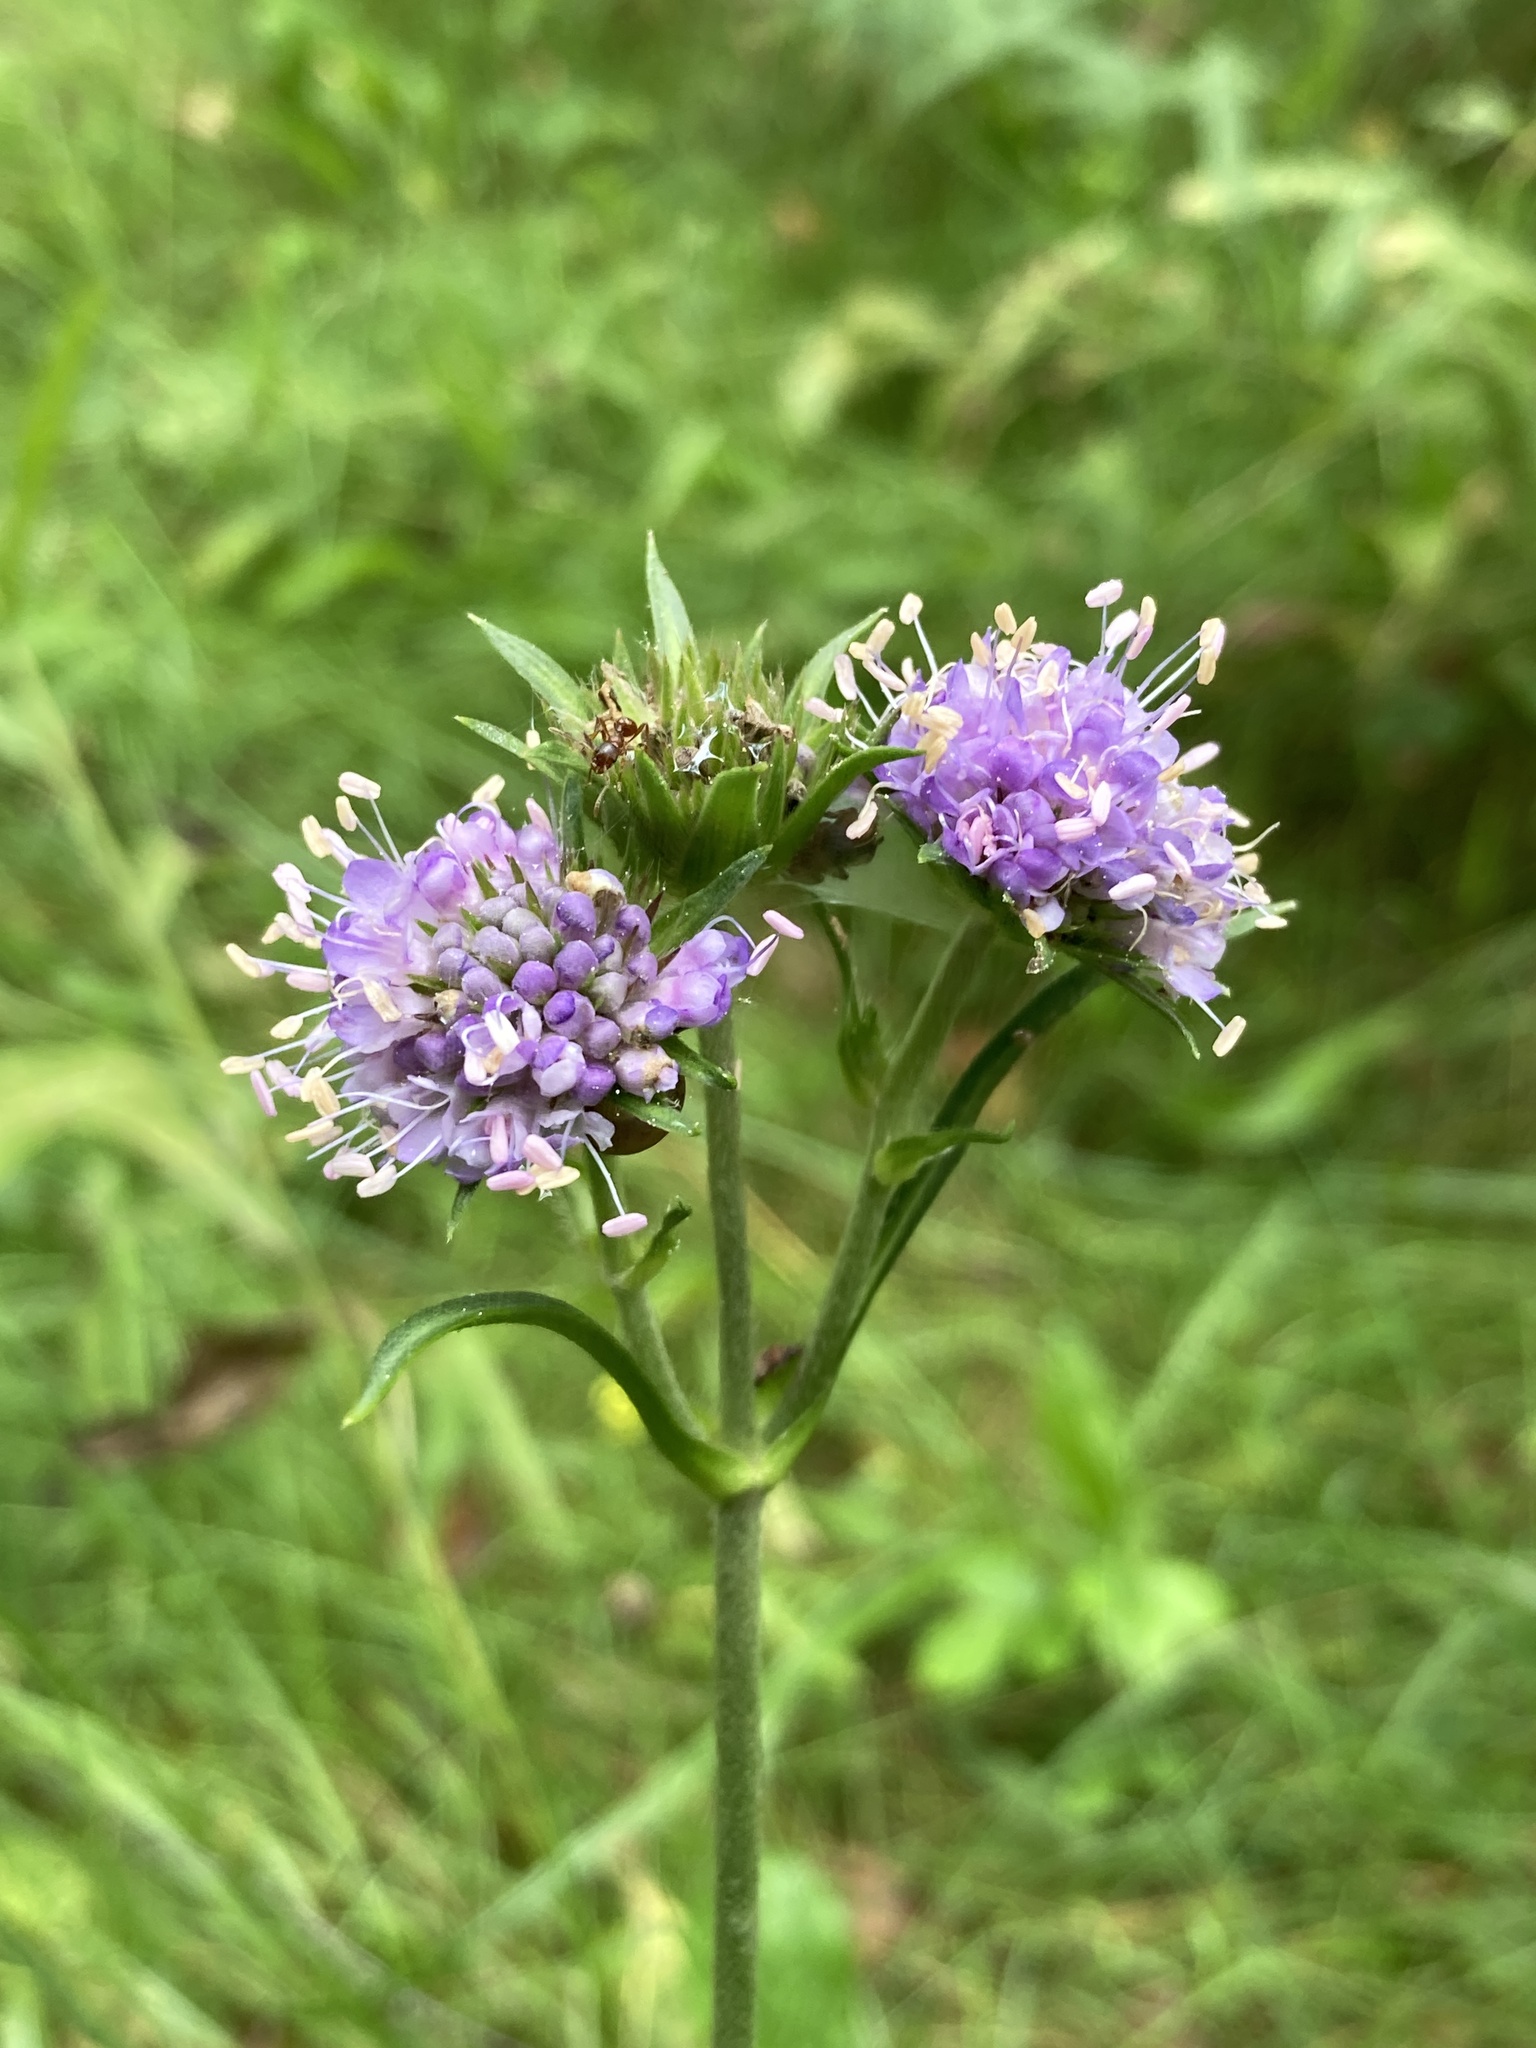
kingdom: Plantae
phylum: Tracheophyta
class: Magnoliopsida
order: Dipsacales
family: Caprifoliaceae
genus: Succisa
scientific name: Succisa pratensis
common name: Devil's-bit
